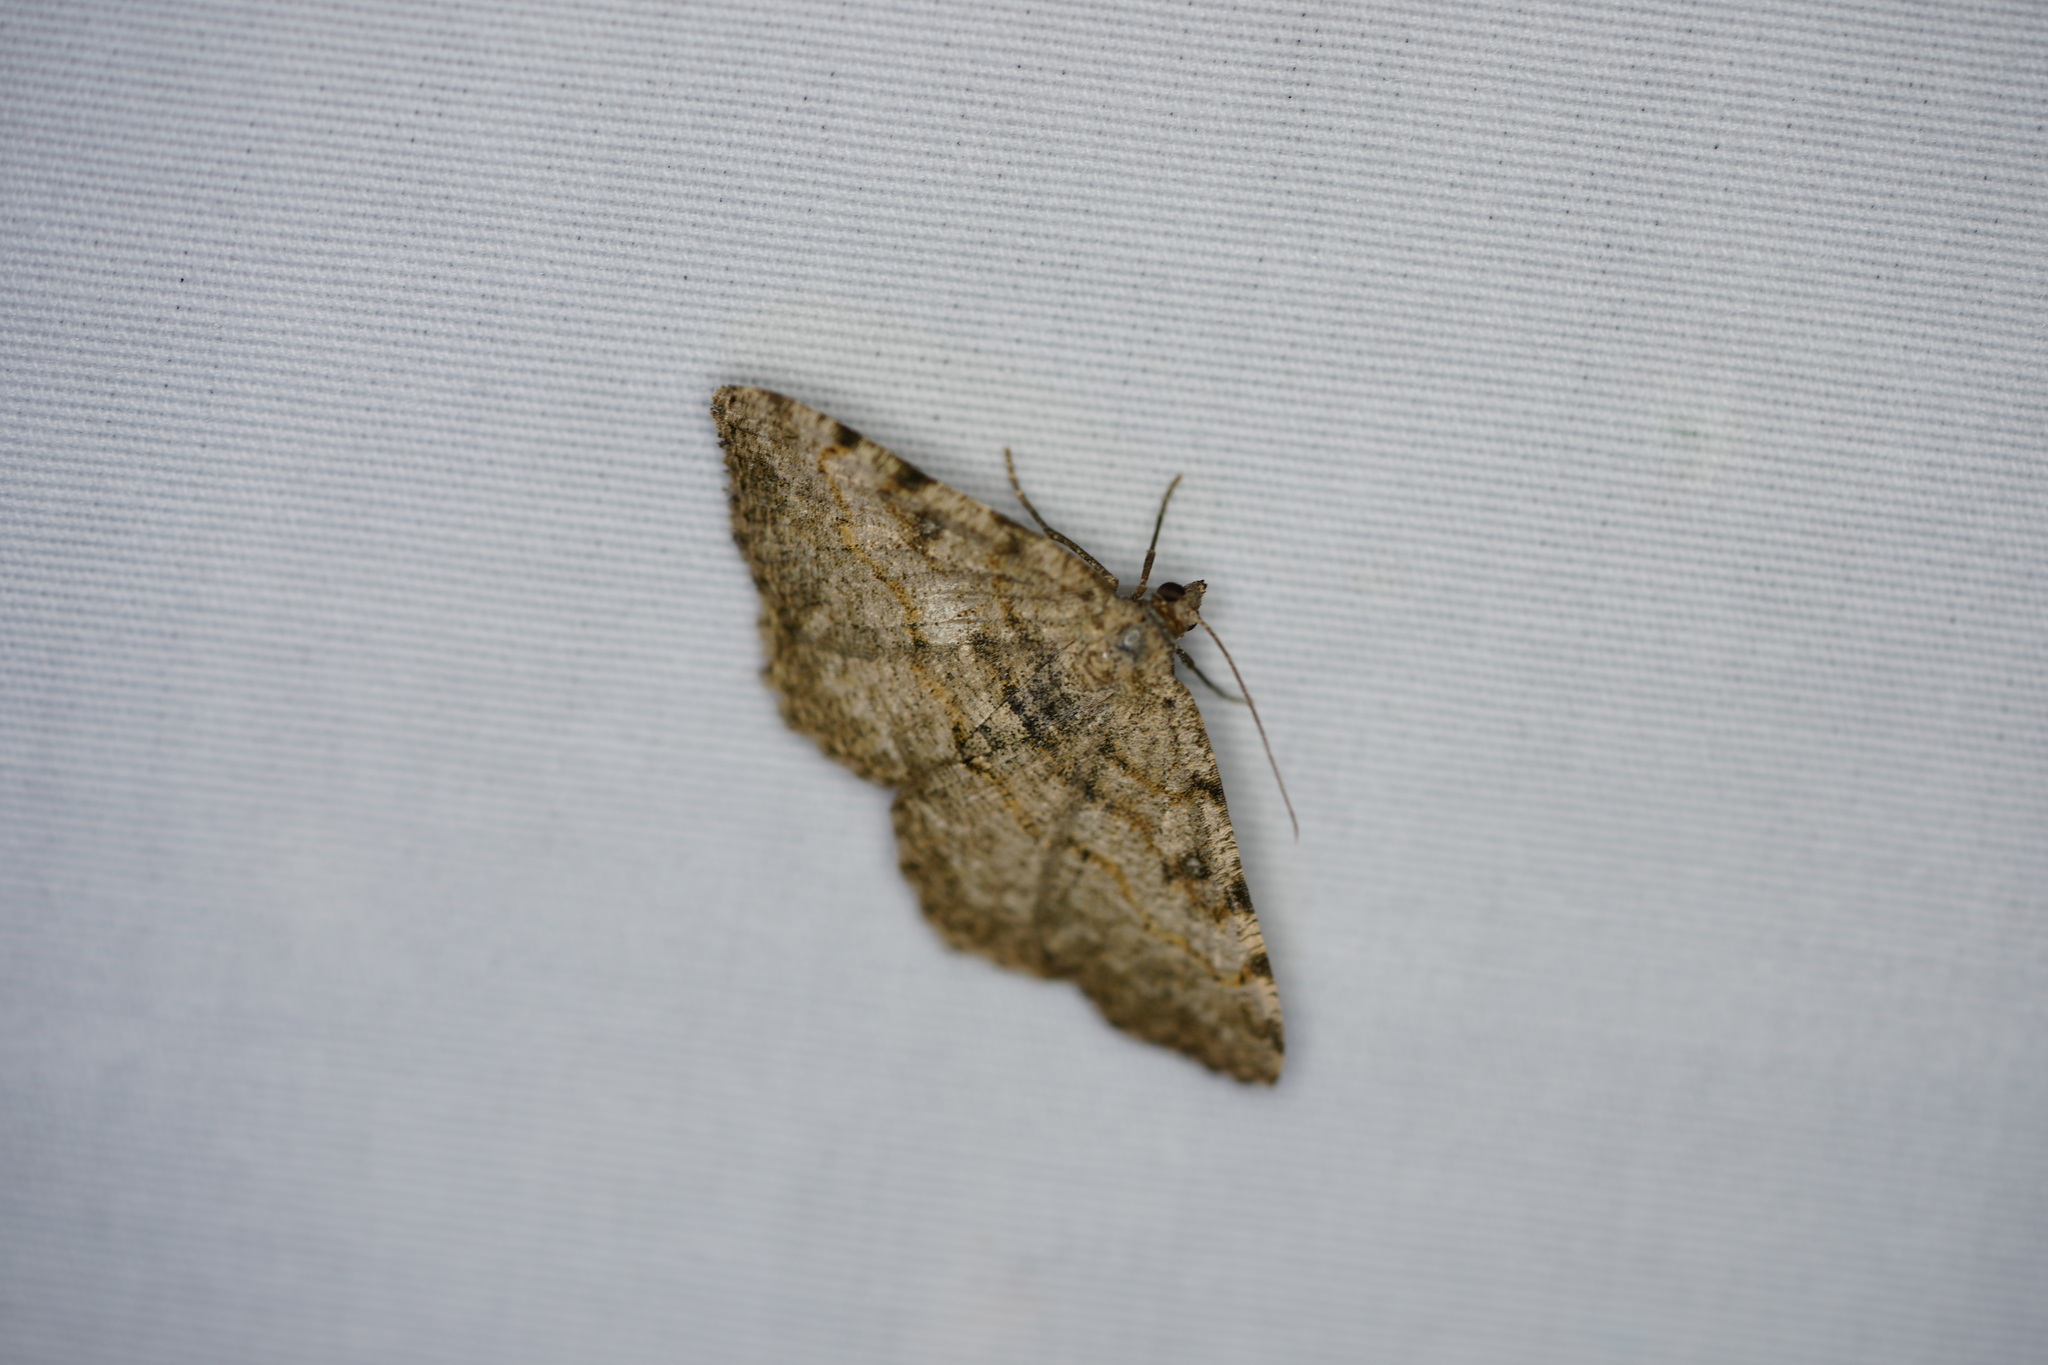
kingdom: Animalia
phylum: Arthropoda
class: Insecta
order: Lepidoptera
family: Geometridae
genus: Digrammia
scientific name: Digrammia gnophosaria
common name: Hollow-spotted angle
